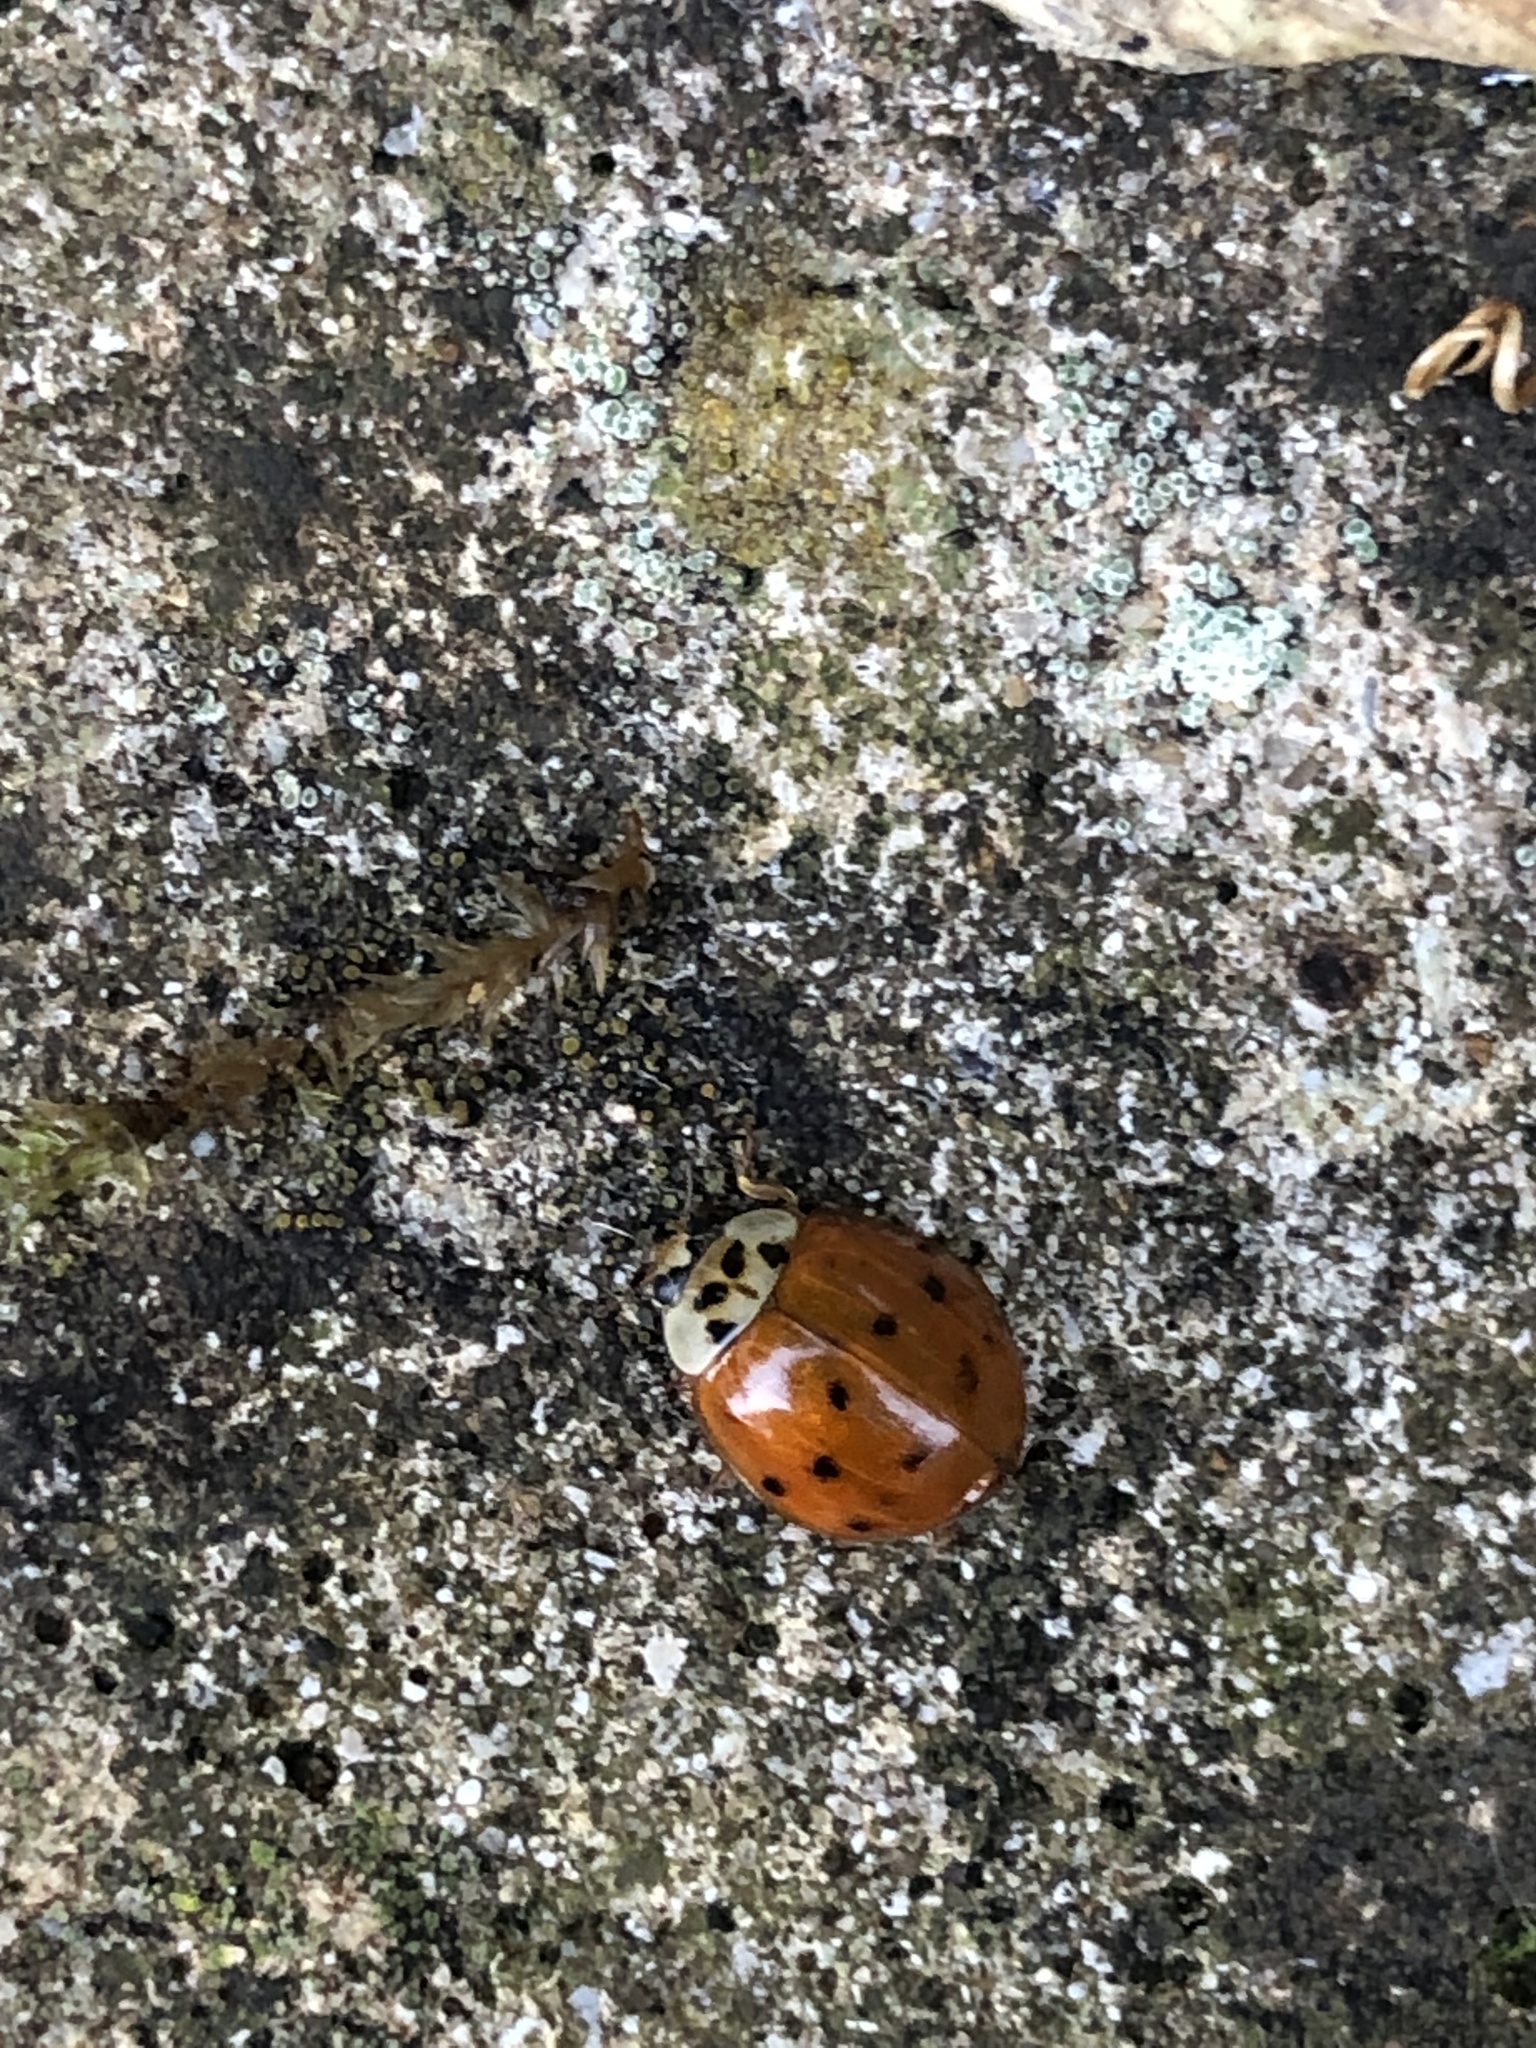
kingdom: Animalia
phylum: Arthropoda
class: Insecta
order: Coleoptera
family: Coccinellidae
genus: Harmonia
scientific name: Harmonia axyridis
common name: Harlequin ladybird
